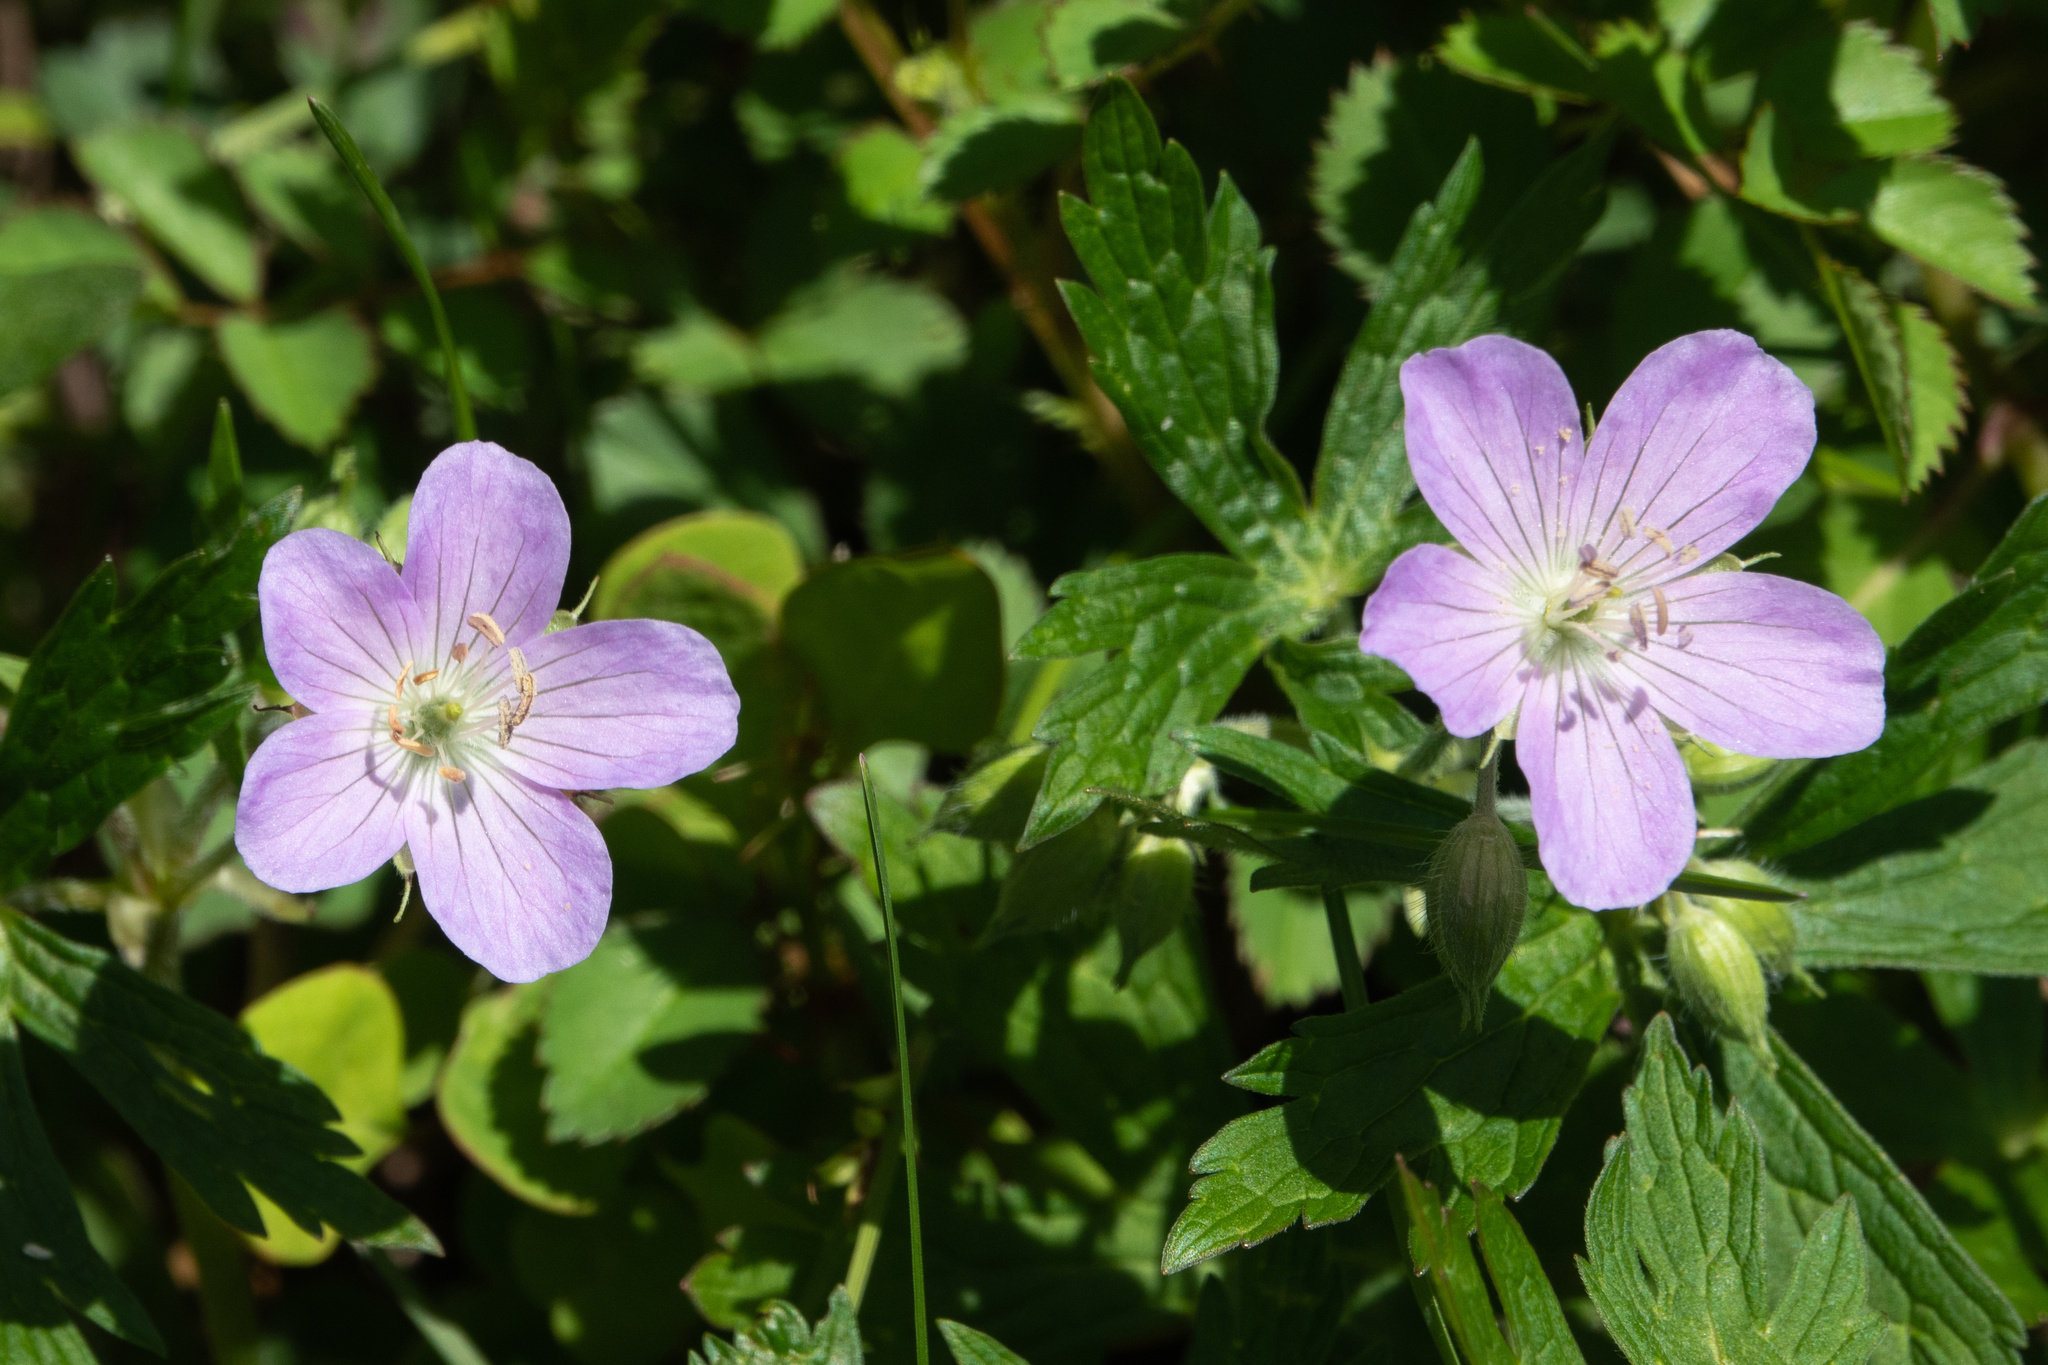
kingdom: Plantae
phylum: Tracheophyta
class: Magnoliopsida
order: Geraniales
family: Geraniaceae
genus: Geranium
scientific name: Geranium maculatum
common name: Spotted geranium
